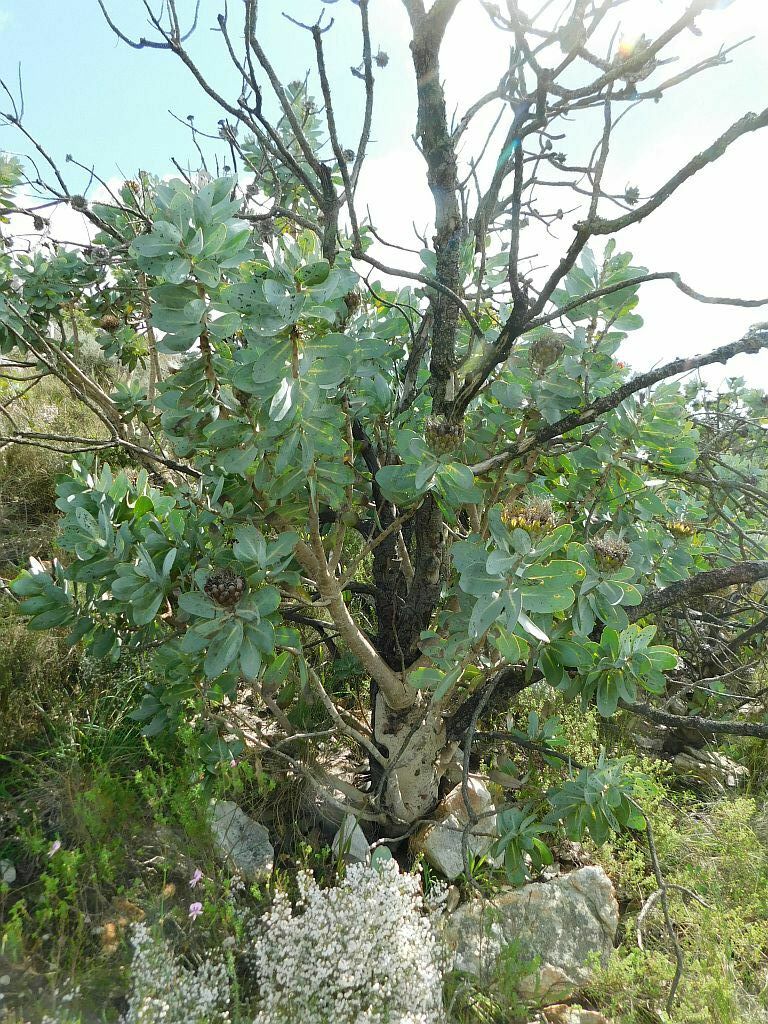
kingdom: Plantae
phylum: Tracheophyta
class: Magnoliopsida
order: Proteales
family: Proteaceae
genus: Protea
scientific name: Protea nitida
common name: Tree protea
